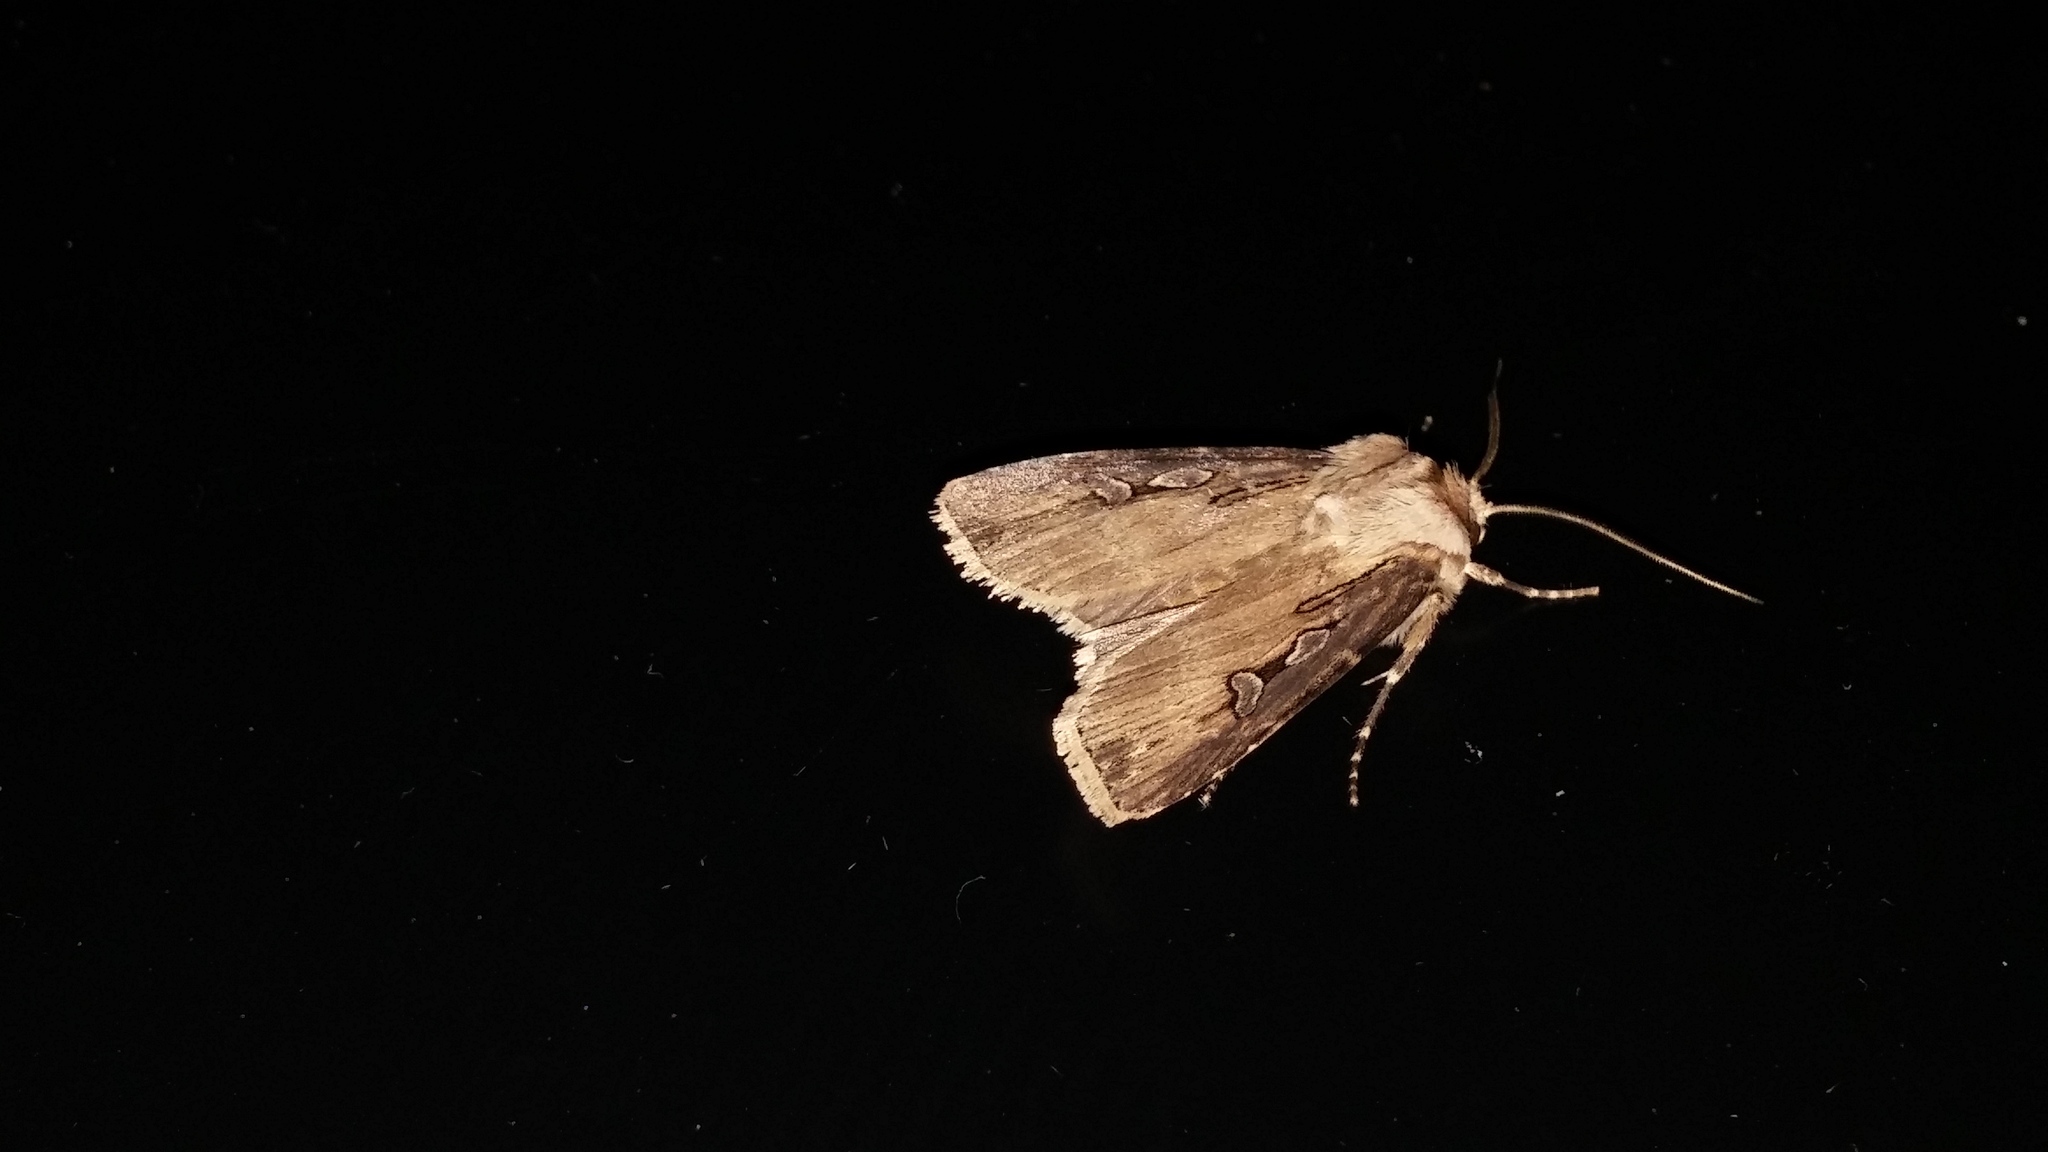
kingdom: Animalia
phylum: Arthropoda
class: Insecta
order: Lepidoptera
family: Noctuidae
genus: Agrotis
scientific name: Agrotis stigmosa
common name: Spotted dart
